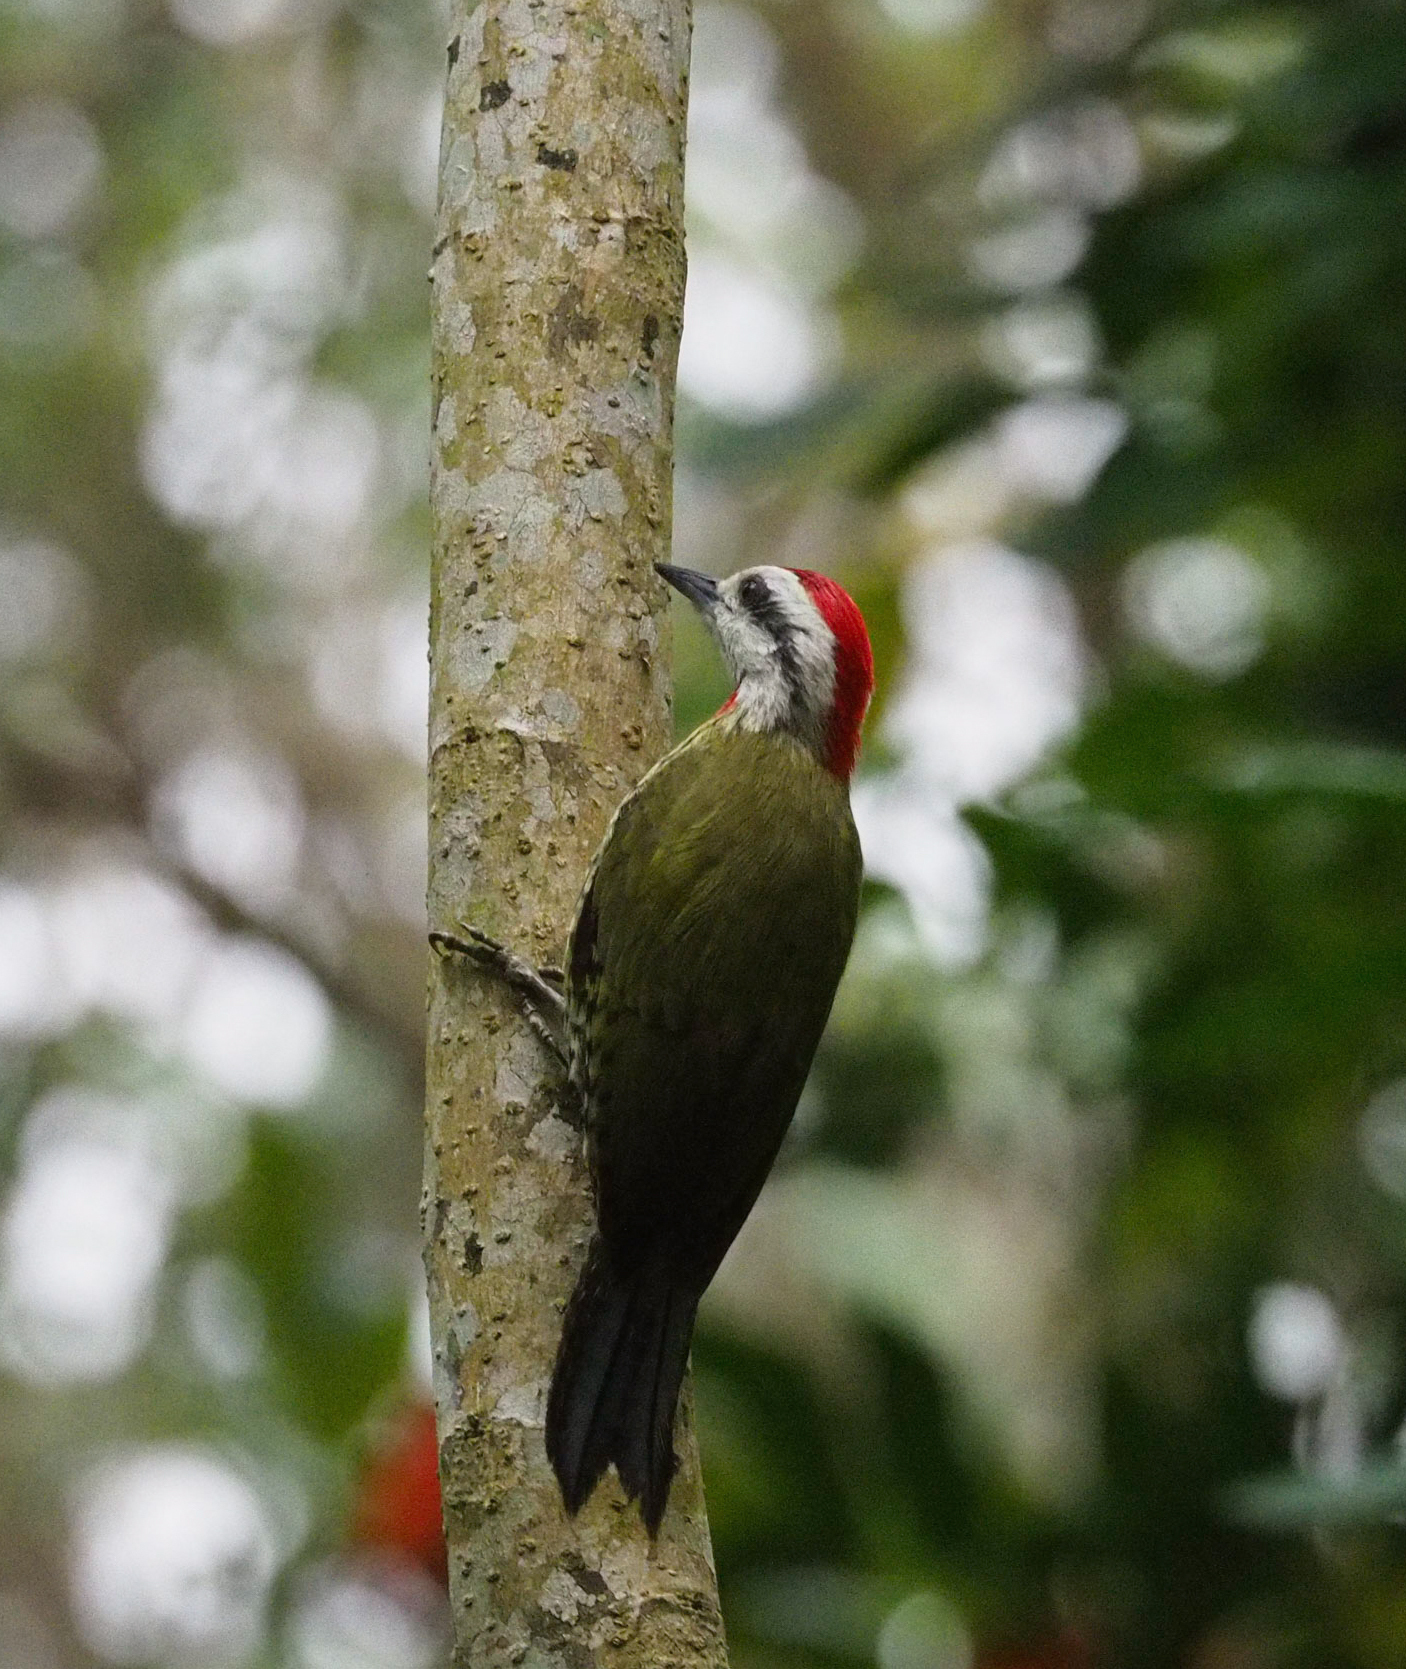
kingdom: Animalia
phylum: Chordata
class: Aves
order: Piciformes
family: Picidae
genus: Xiphidiopicus
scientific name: Xiphidiopicus percussus
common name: Cuban green woodpecker
